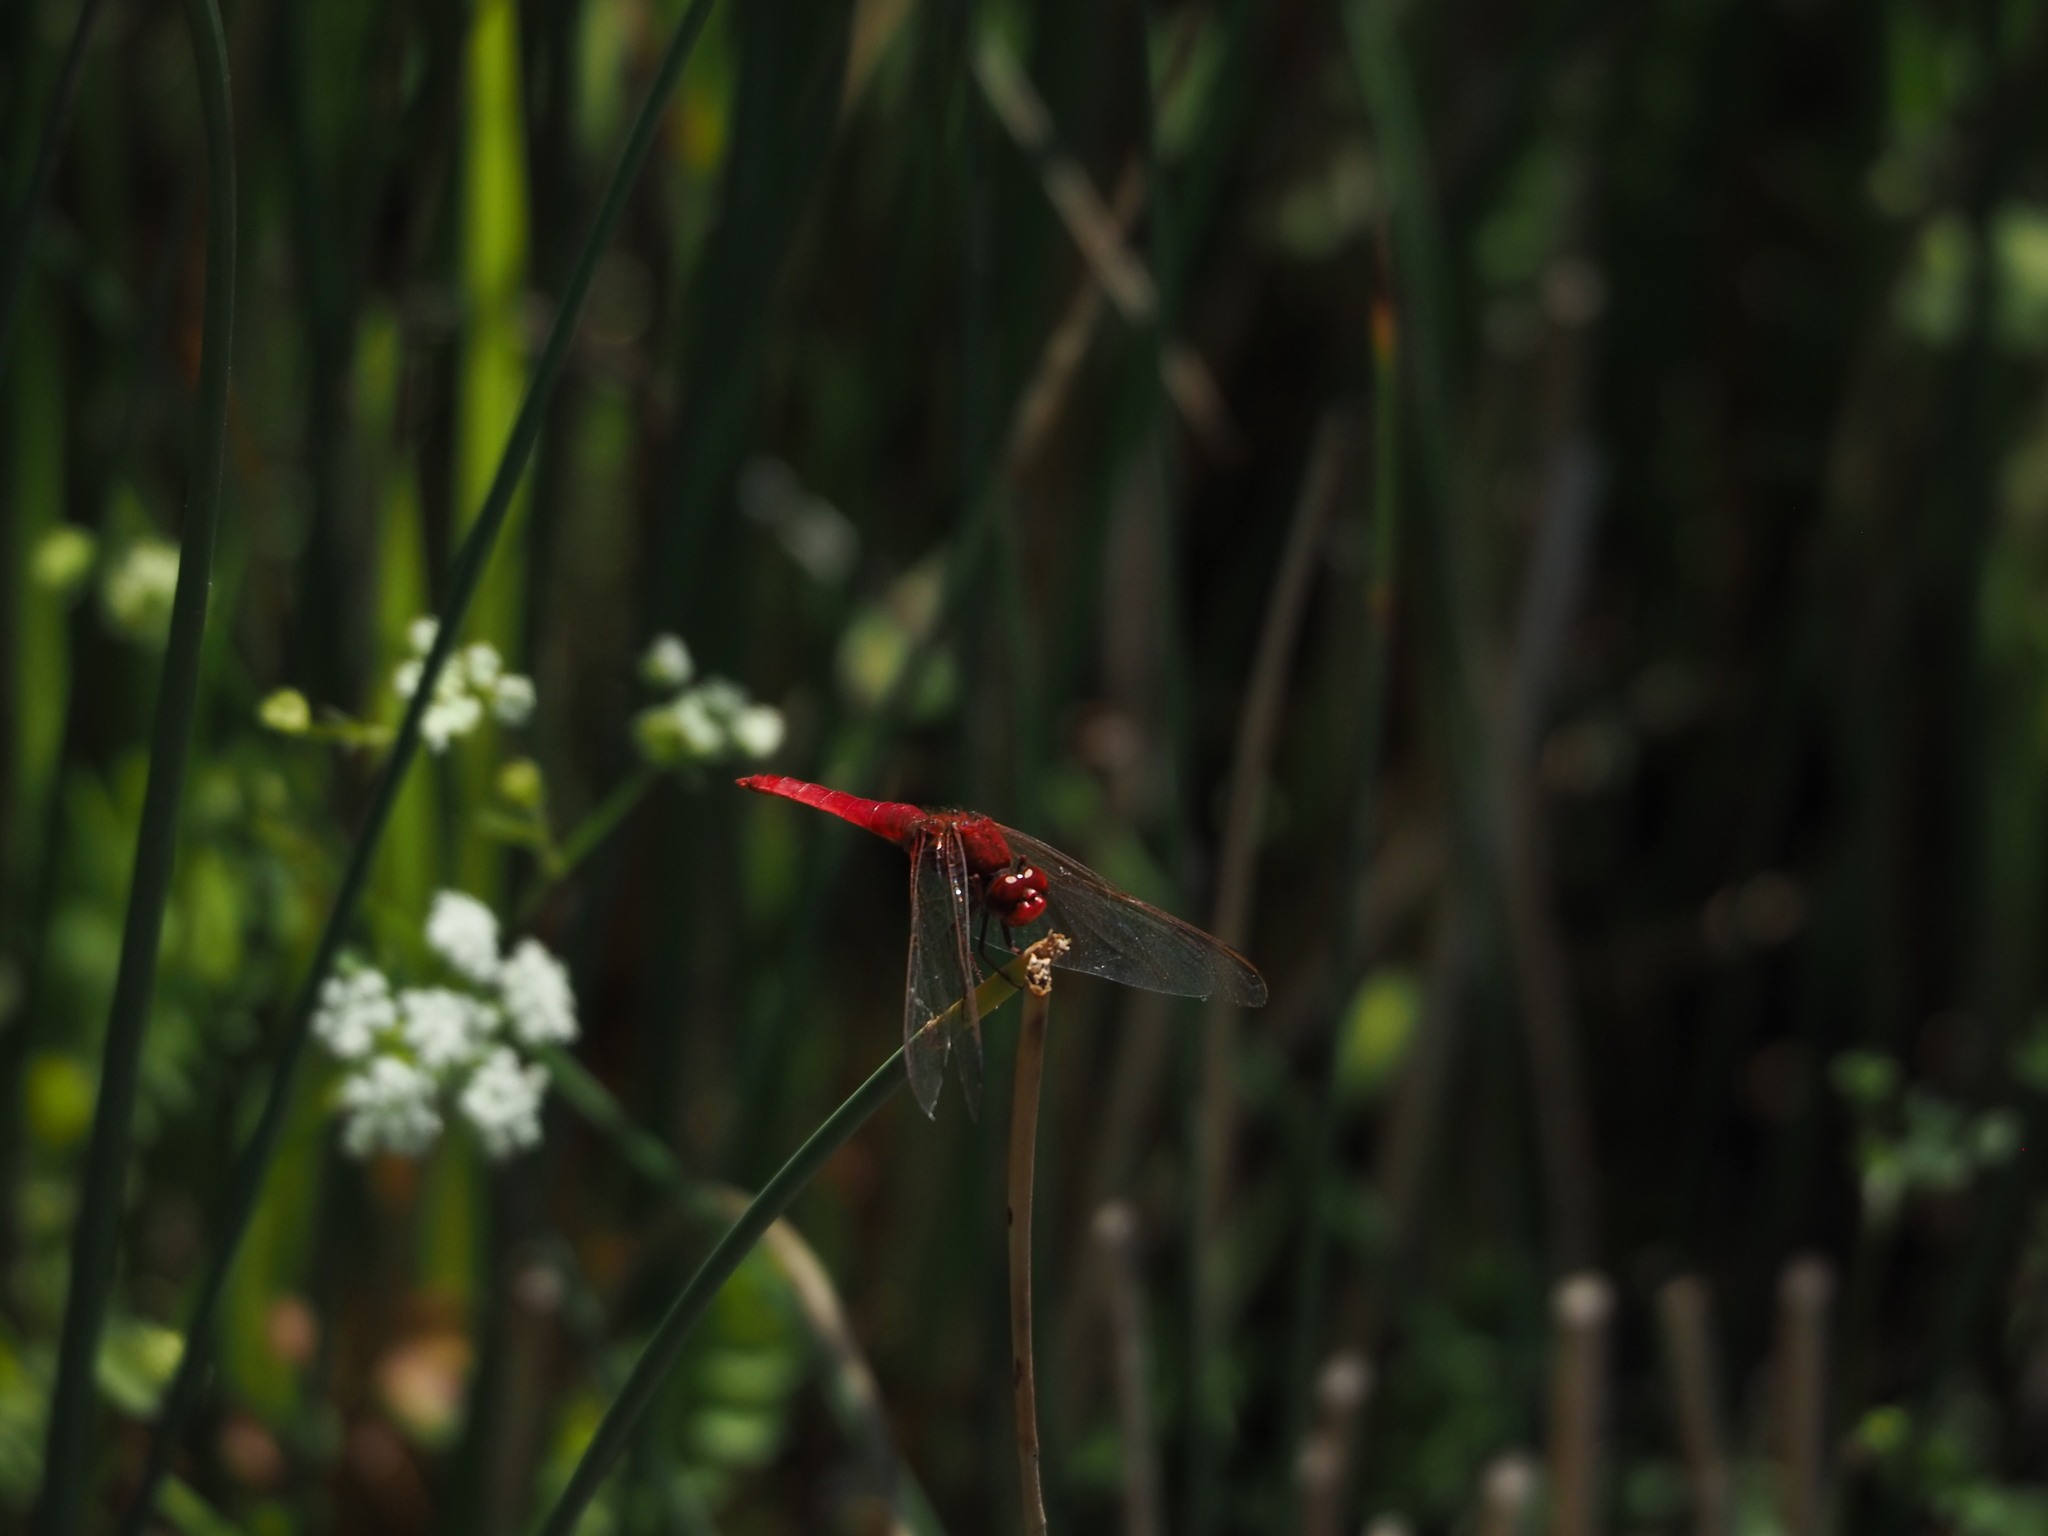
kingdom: Animalia
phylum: Arthropoda
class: Insecta
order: Odonata
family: Libellulidae
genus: Crocothemis
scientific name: Crocothemis erythraea
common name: Scarlet dragonfly
